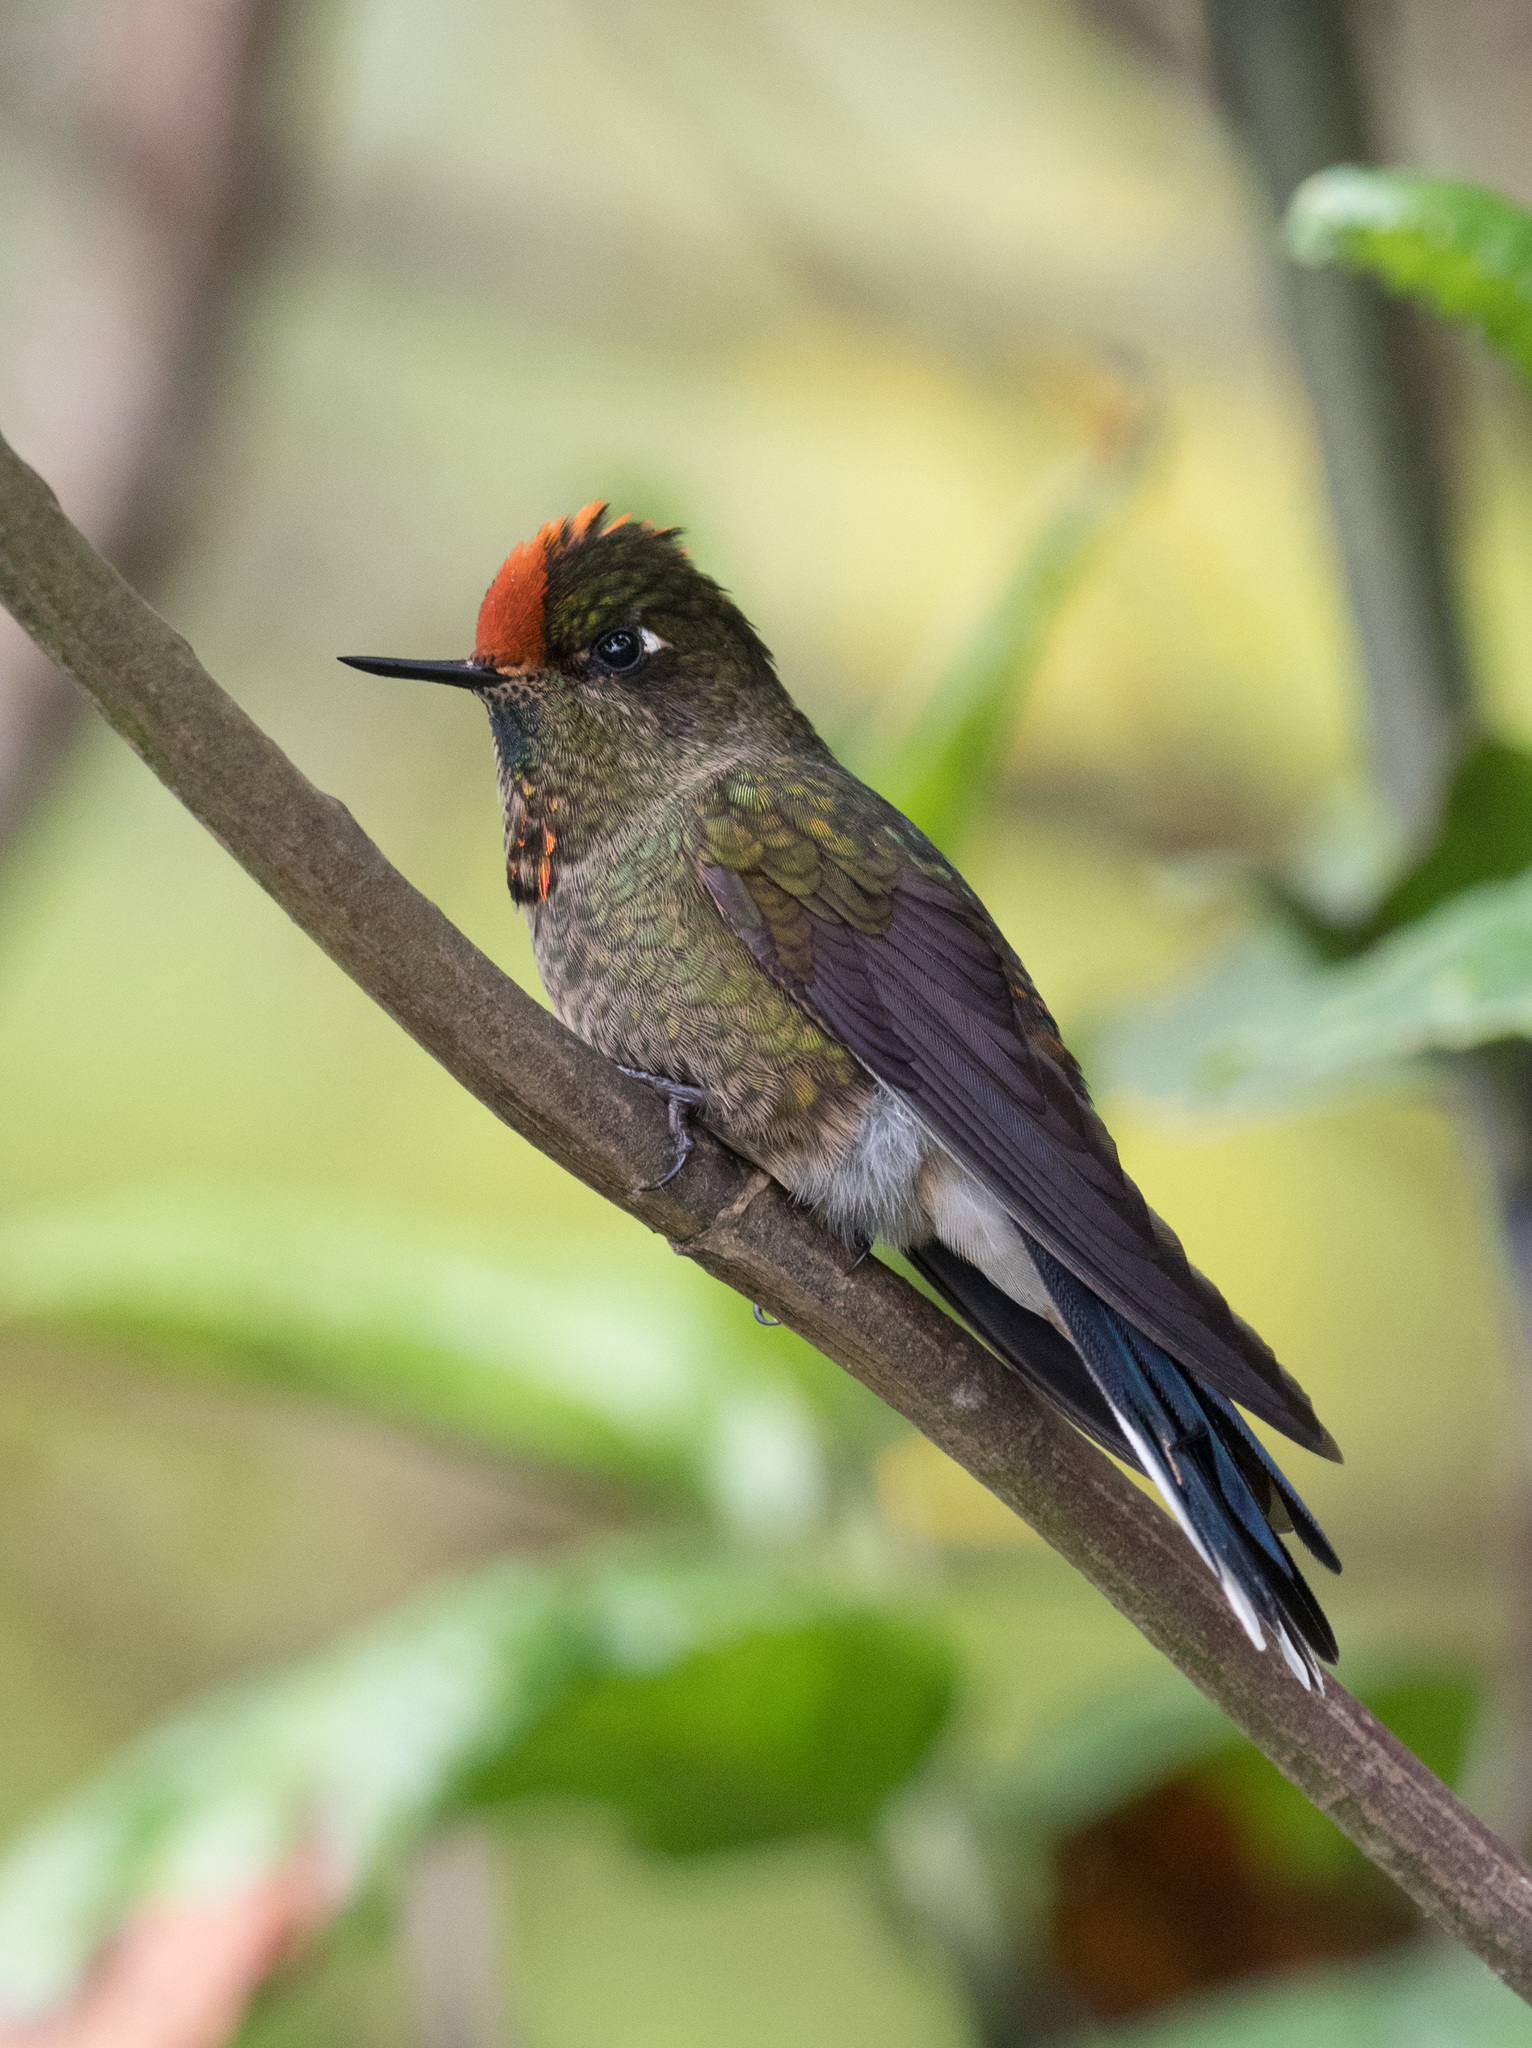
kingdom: Animalia
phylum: Chordata
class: Aves
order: Apodiformes
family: Trochilidae
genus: Chalcostigma
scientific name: Chalcostigma herrani
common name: Rainbow-bearded thornbill
